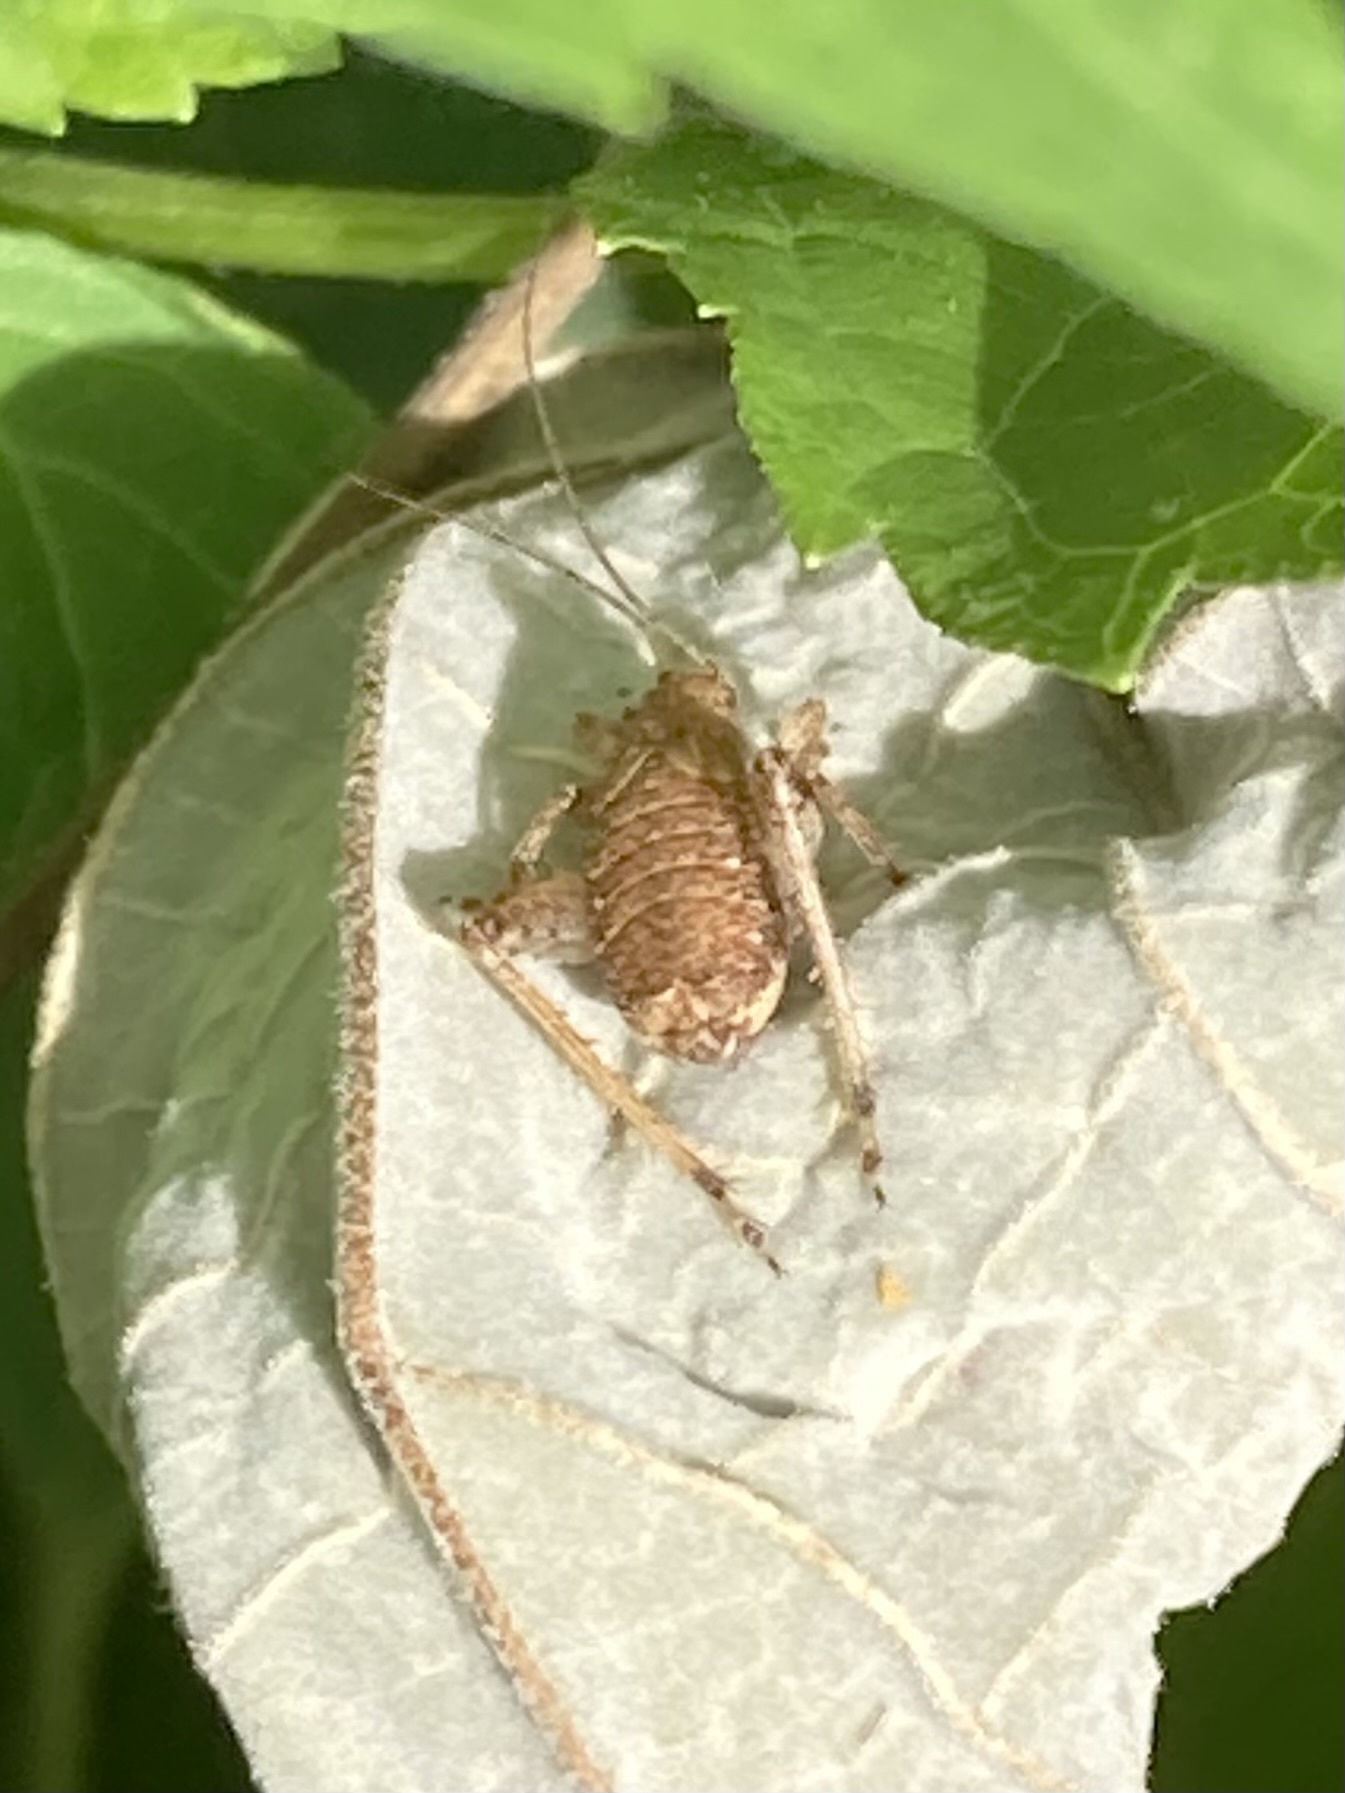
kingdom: Animalia
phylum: Arthropoda
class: Insecta
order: Orthoptera
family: Gryllidae
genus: Hapithus
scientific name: Hapithus agitator
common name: Restless bush cricket
